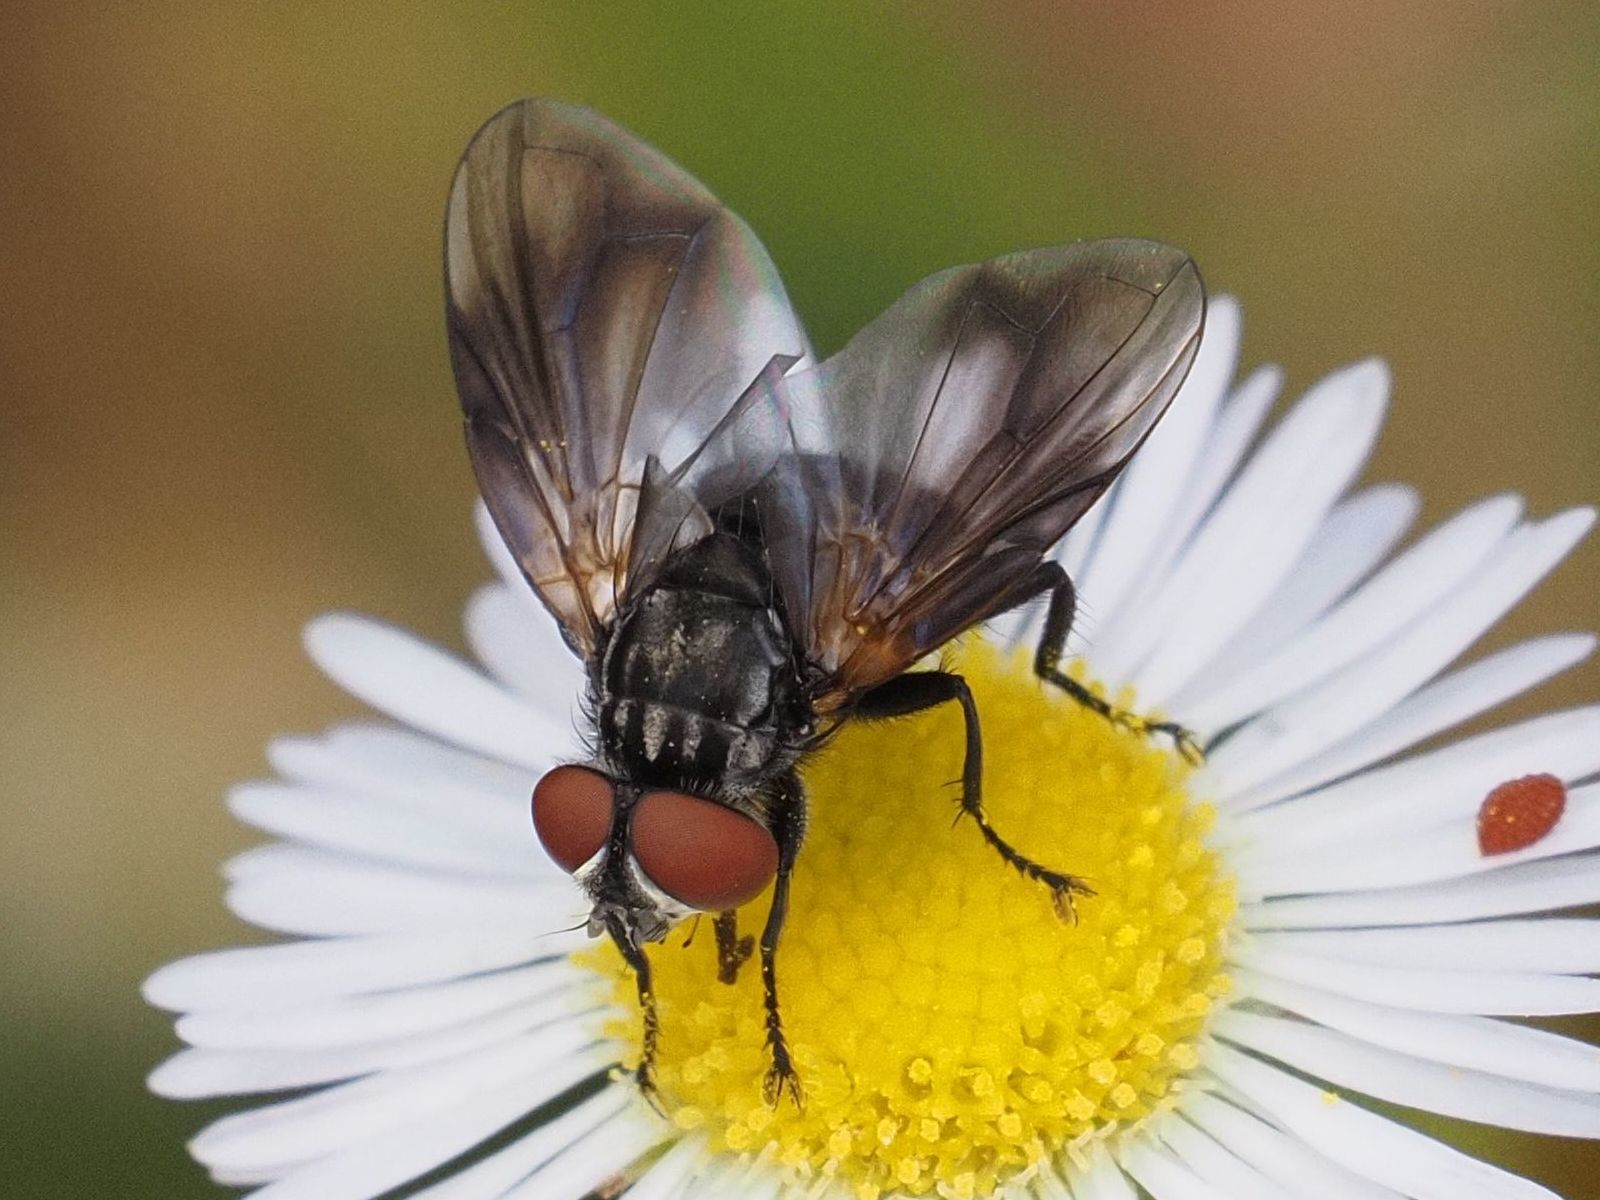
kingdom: Animalia
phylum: Arthropoda
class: Insecta
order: Diptera
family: Tachinidae
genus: Phasia
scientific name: Phasia obesa
